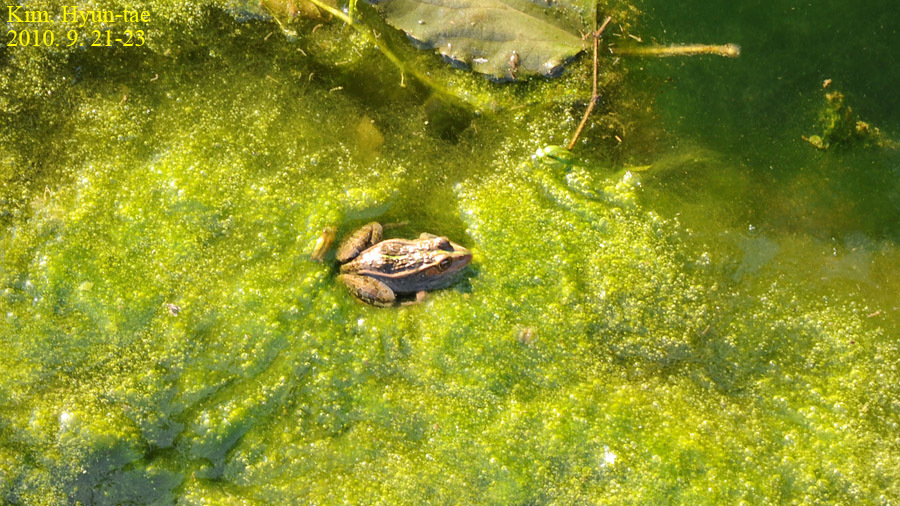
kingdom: Animalia
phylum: Chordata
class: Amphibia
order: Anura
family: Ranidae
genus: Pelophylax
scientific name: Pelophylax nigromaculatus
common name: Black-spotted pond frog
